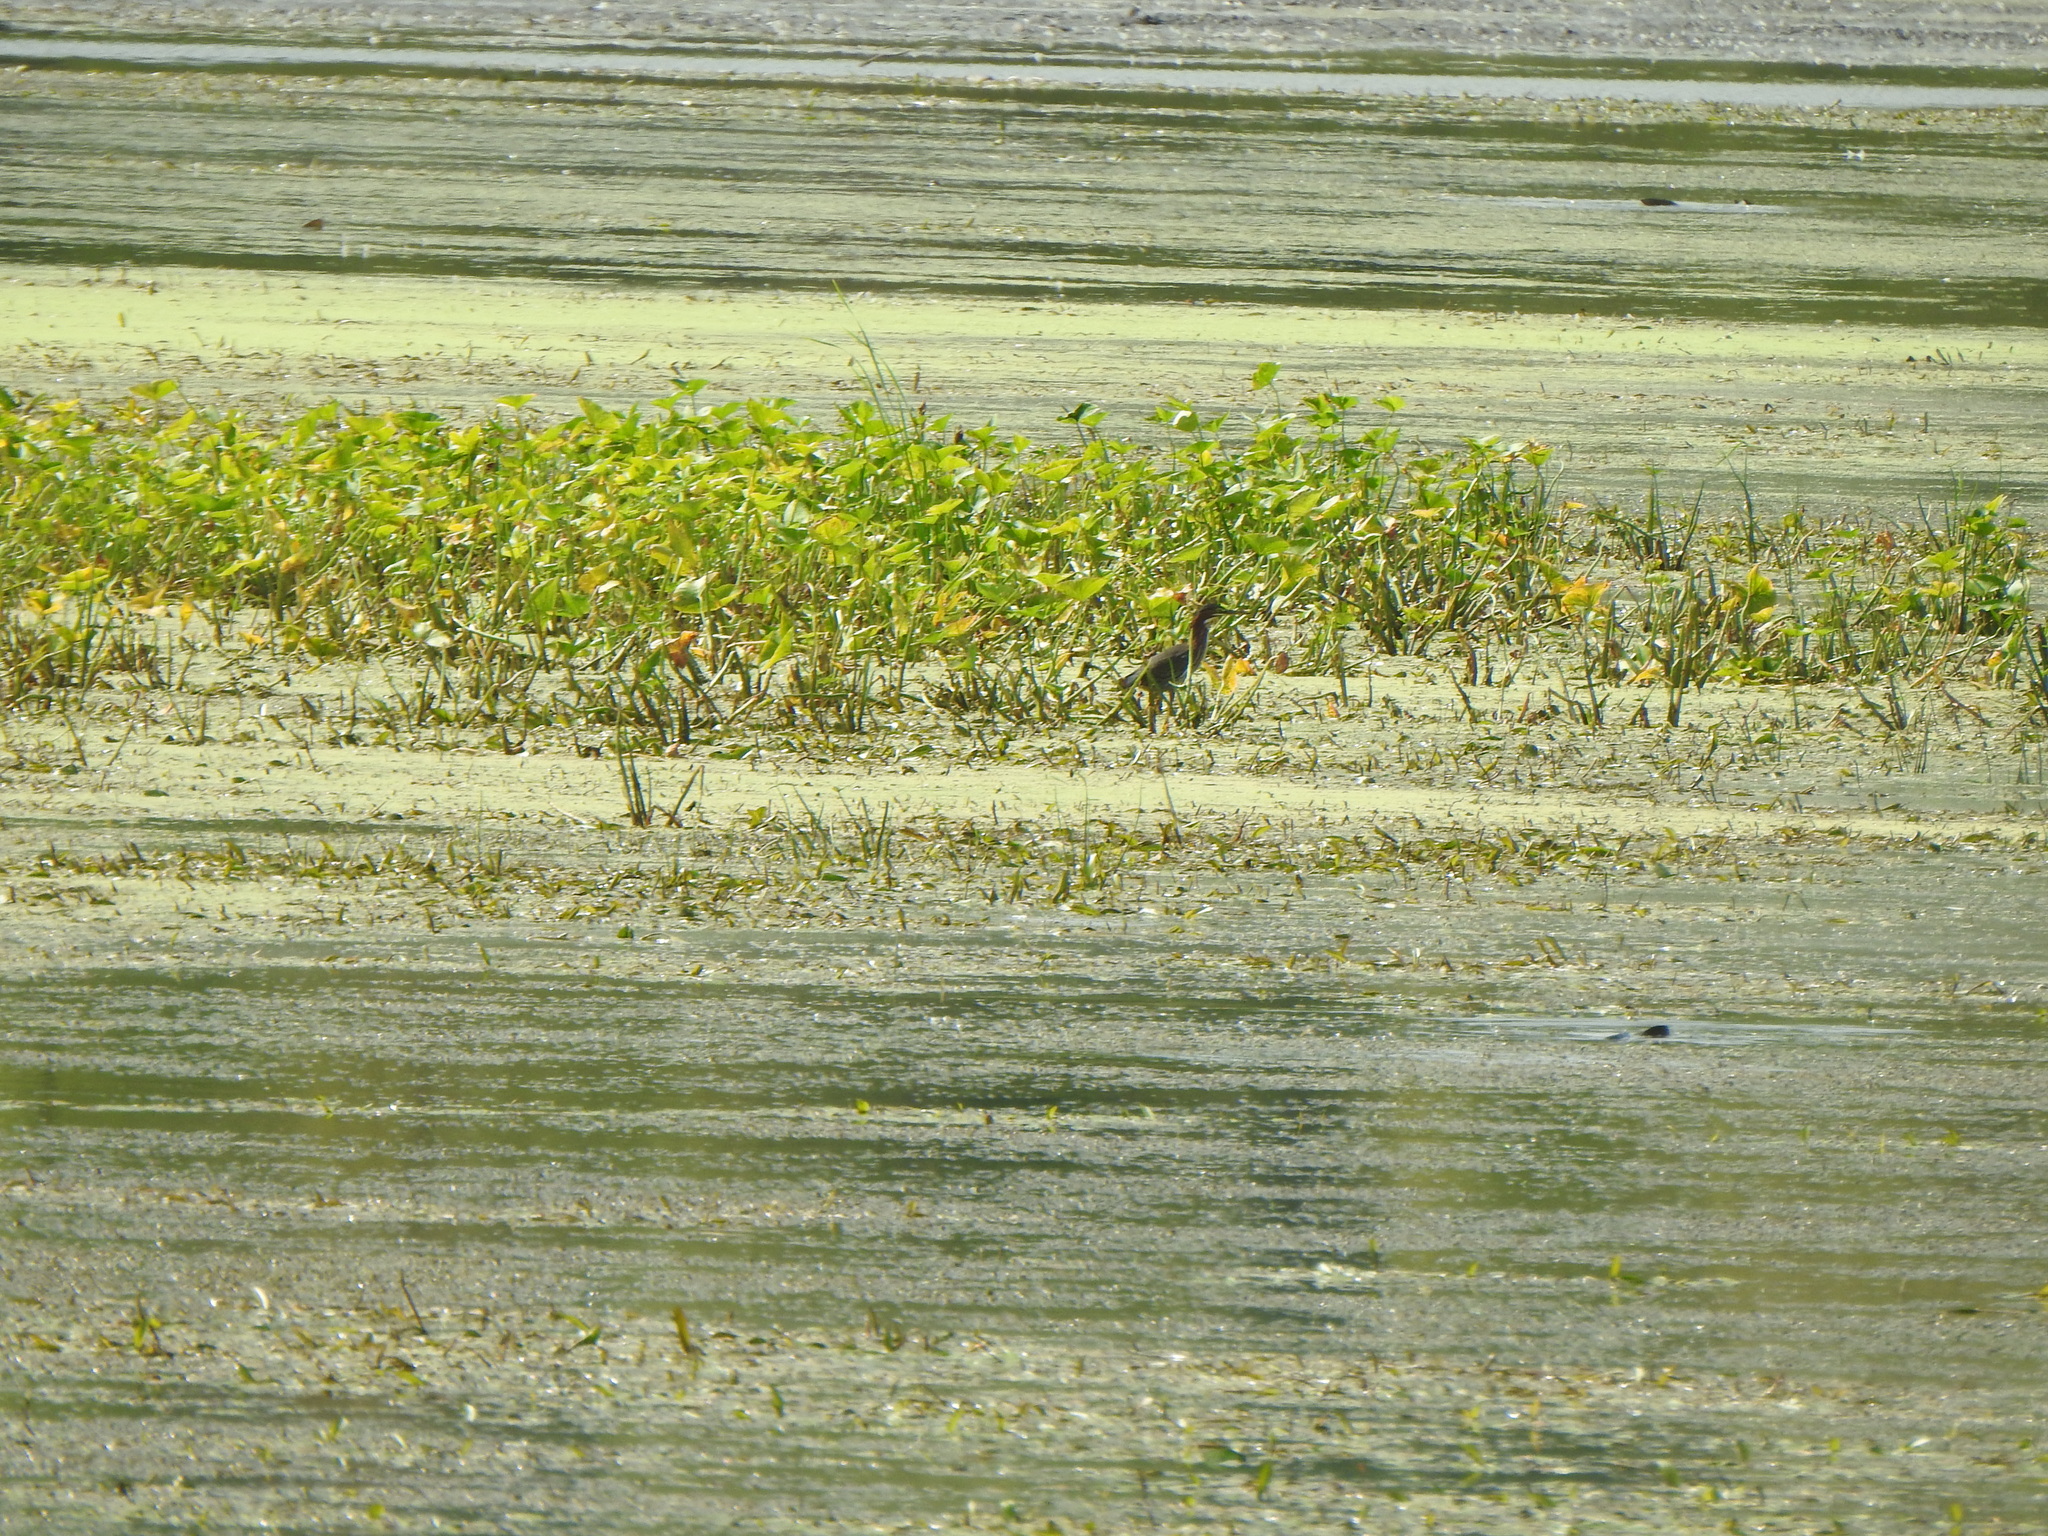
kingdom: Animalia
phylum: Chordata
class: Aves
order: Pelecaniformes
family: Ardeidae
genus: Butorides
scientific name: Butorides virescens
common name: Green heron
